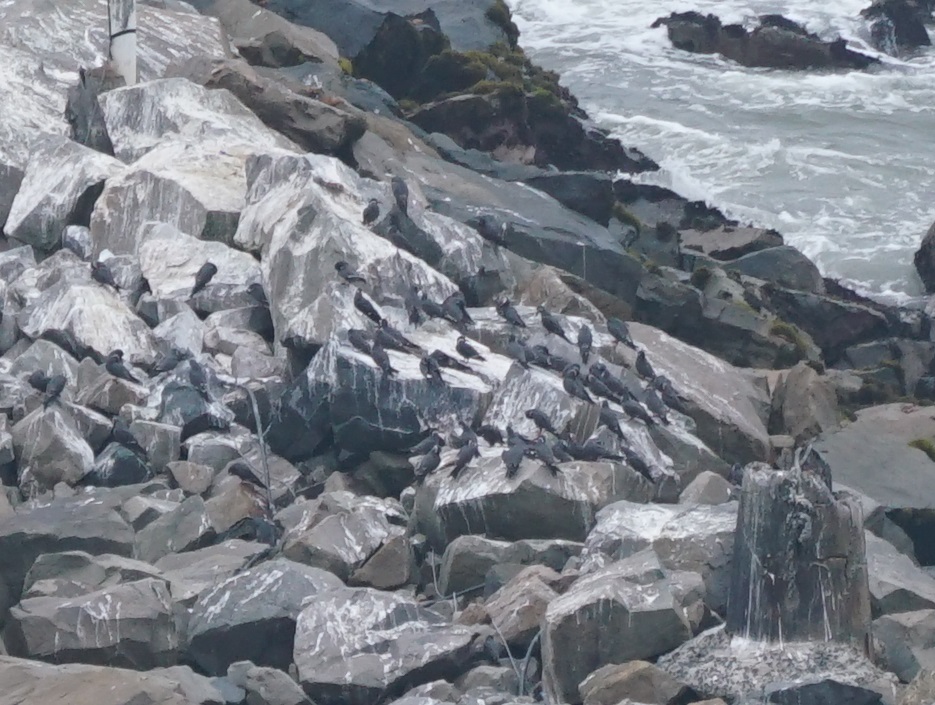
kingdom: Animalia
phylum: Chordata
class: Aves
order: Charadriiformes
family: Laridae
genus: Larosterna
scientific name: Larosterna inca
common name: Inca tern
